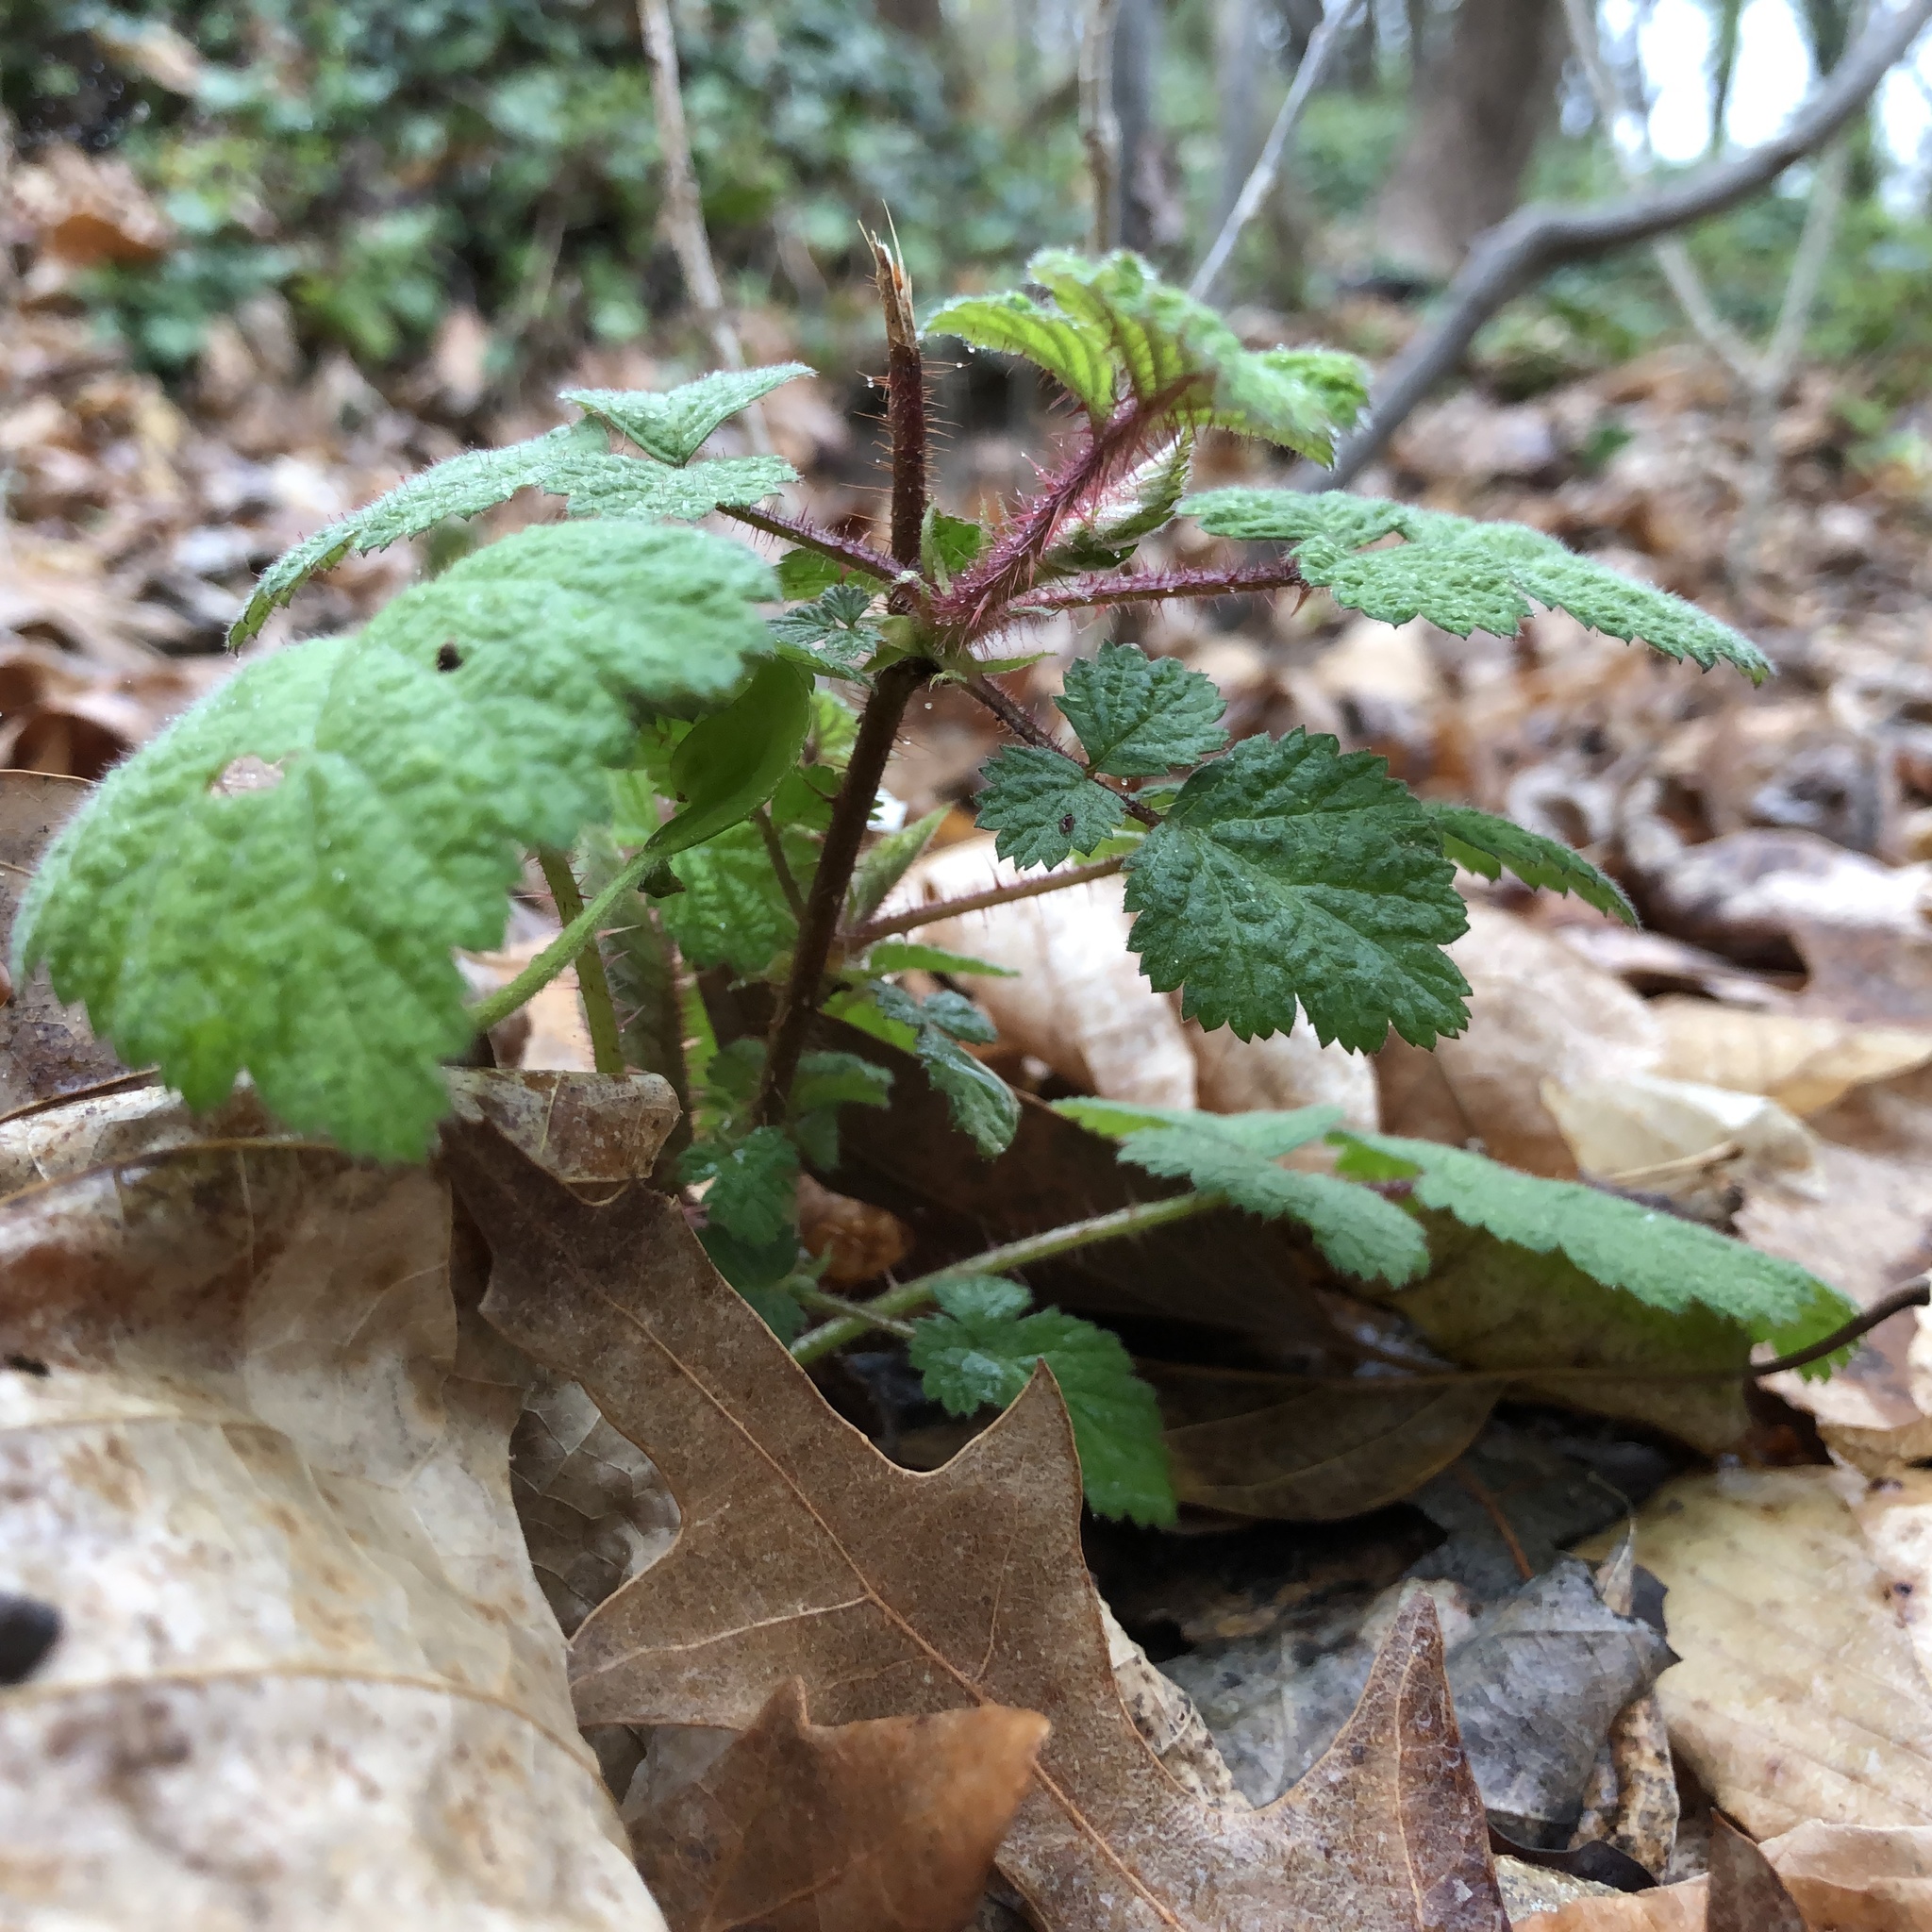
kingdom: Plantae
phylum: Tracheophyta
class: Magnoliopsida
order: Rosales
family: Rosaceae
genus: Rubus
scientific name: Rubus phoenicolasius
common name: Japanese wineberry
